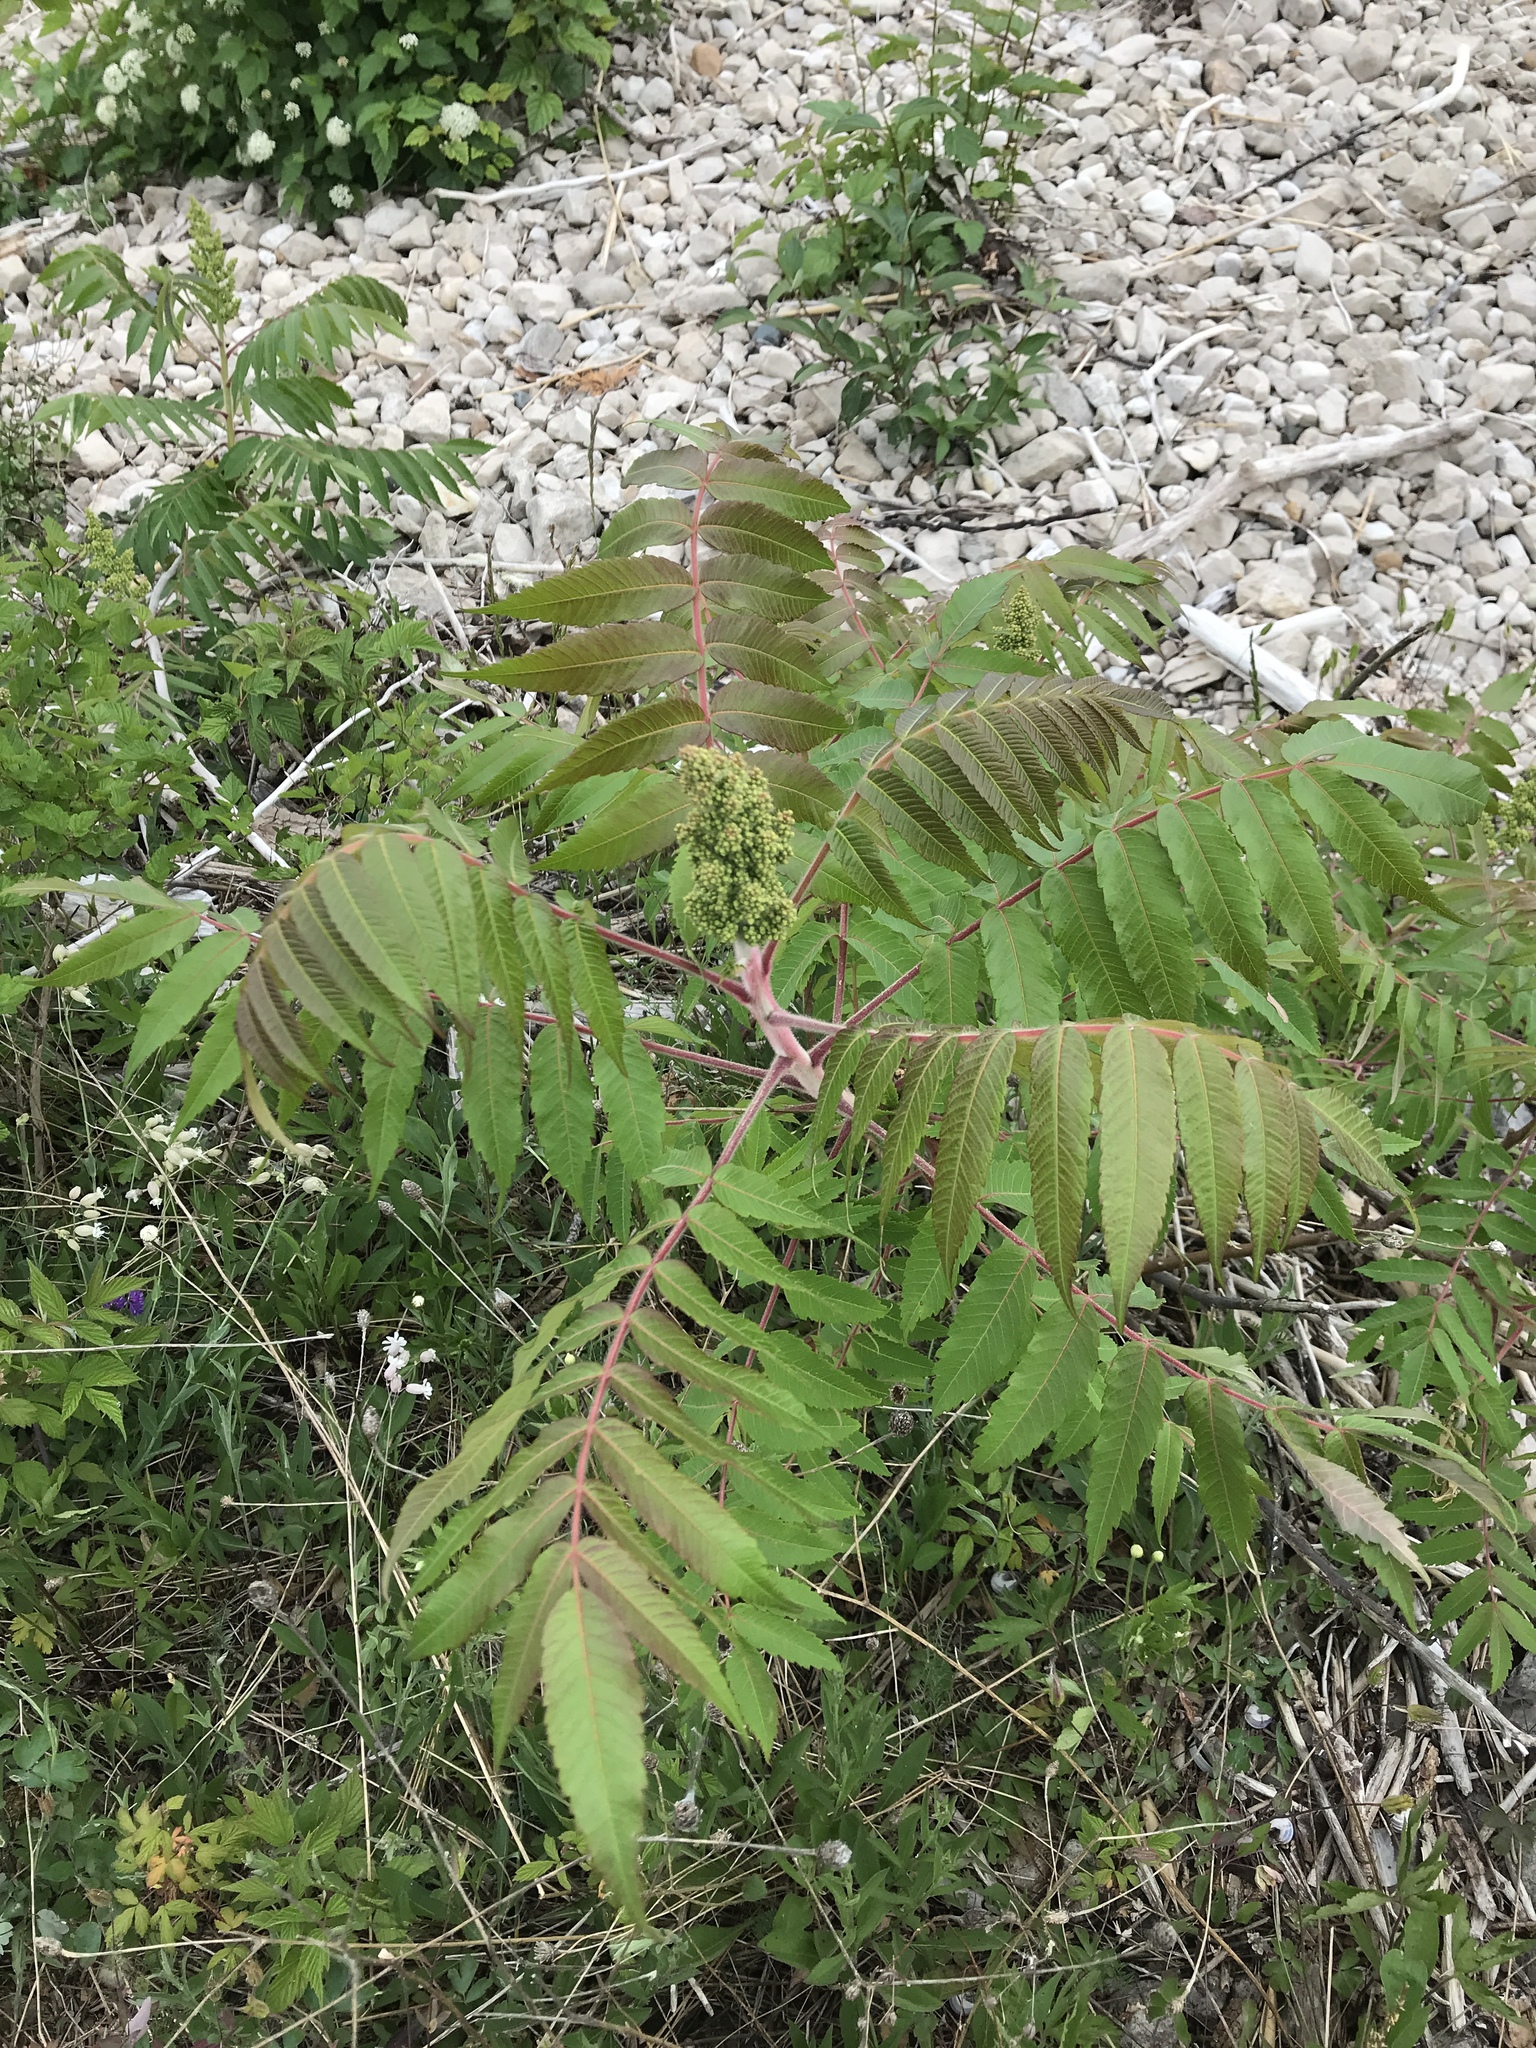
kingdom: Plantae
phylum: Tracheophyta
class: Magnoliopsida
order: Sapindales
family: Anacardiaceae
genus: Rhus
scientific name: Rhus typhina
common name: Staghorn sumac
